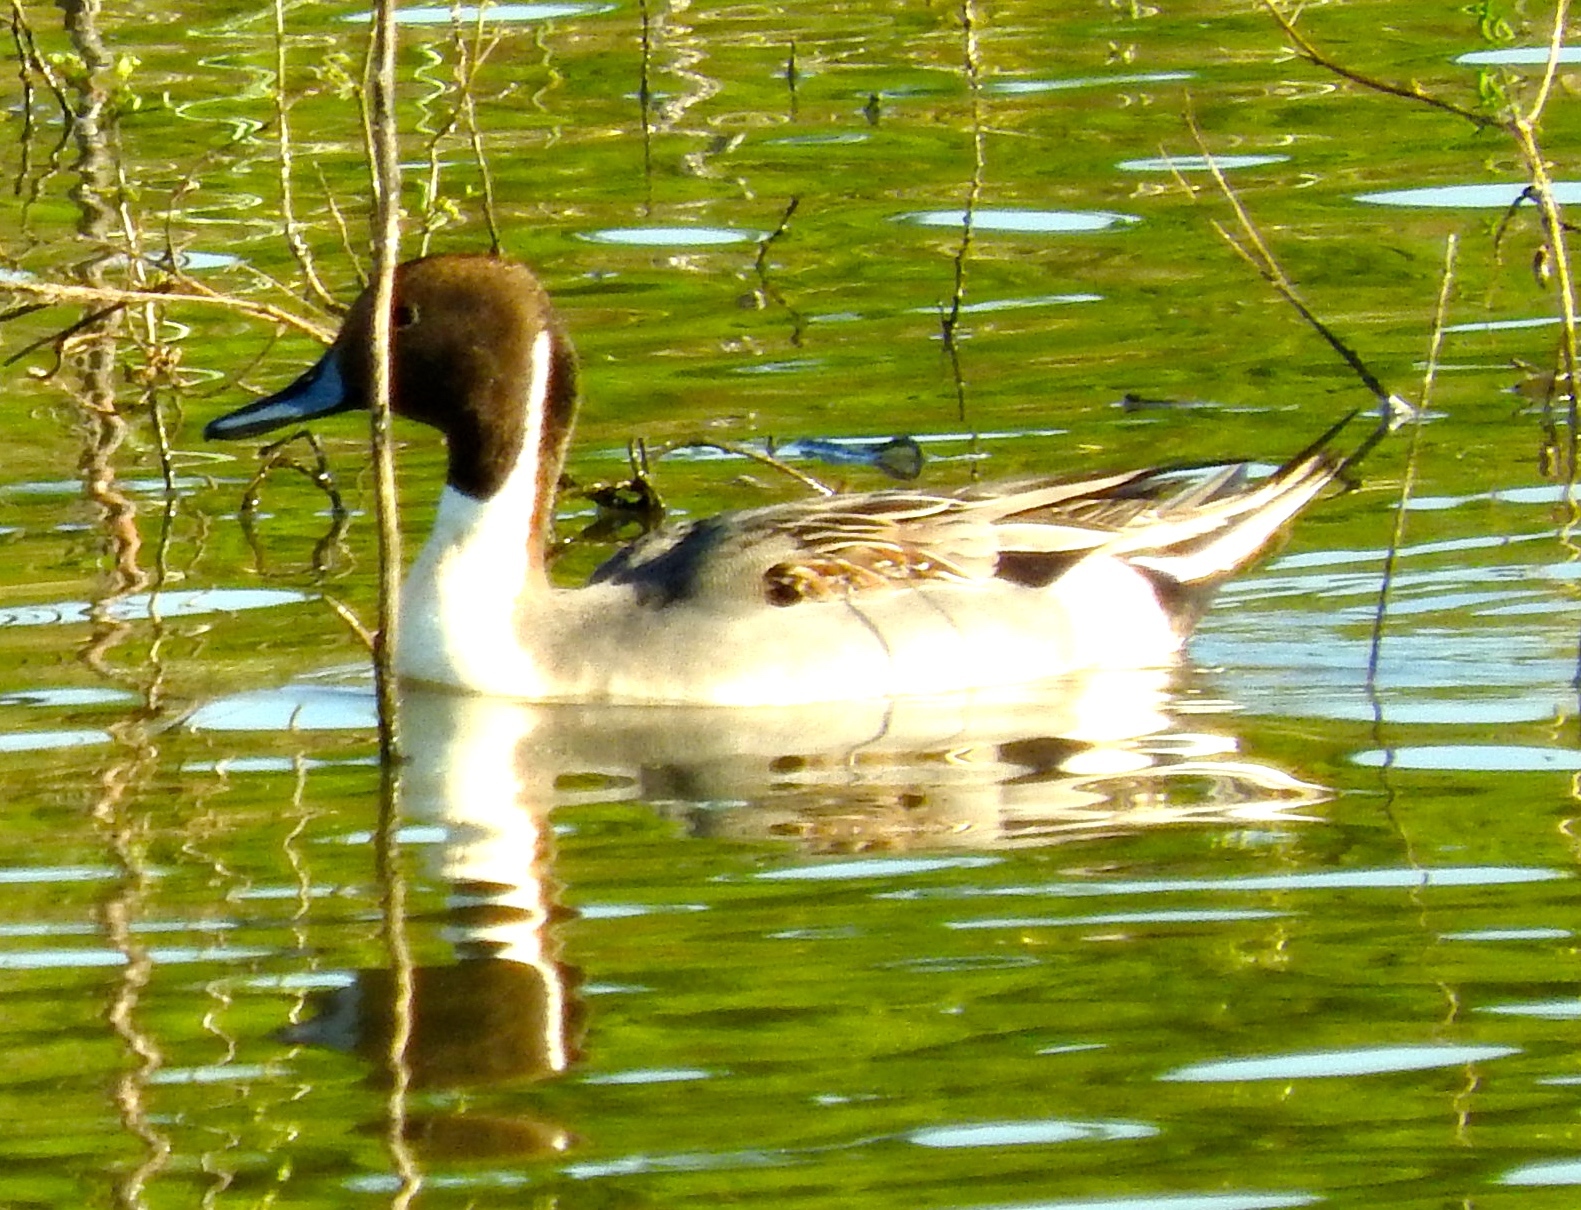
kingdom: Animalia
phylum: Chordata
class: Aves
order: Anseriformes
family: Anatidae
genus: Anas
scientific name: Anas acuta
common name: Northern pintail
